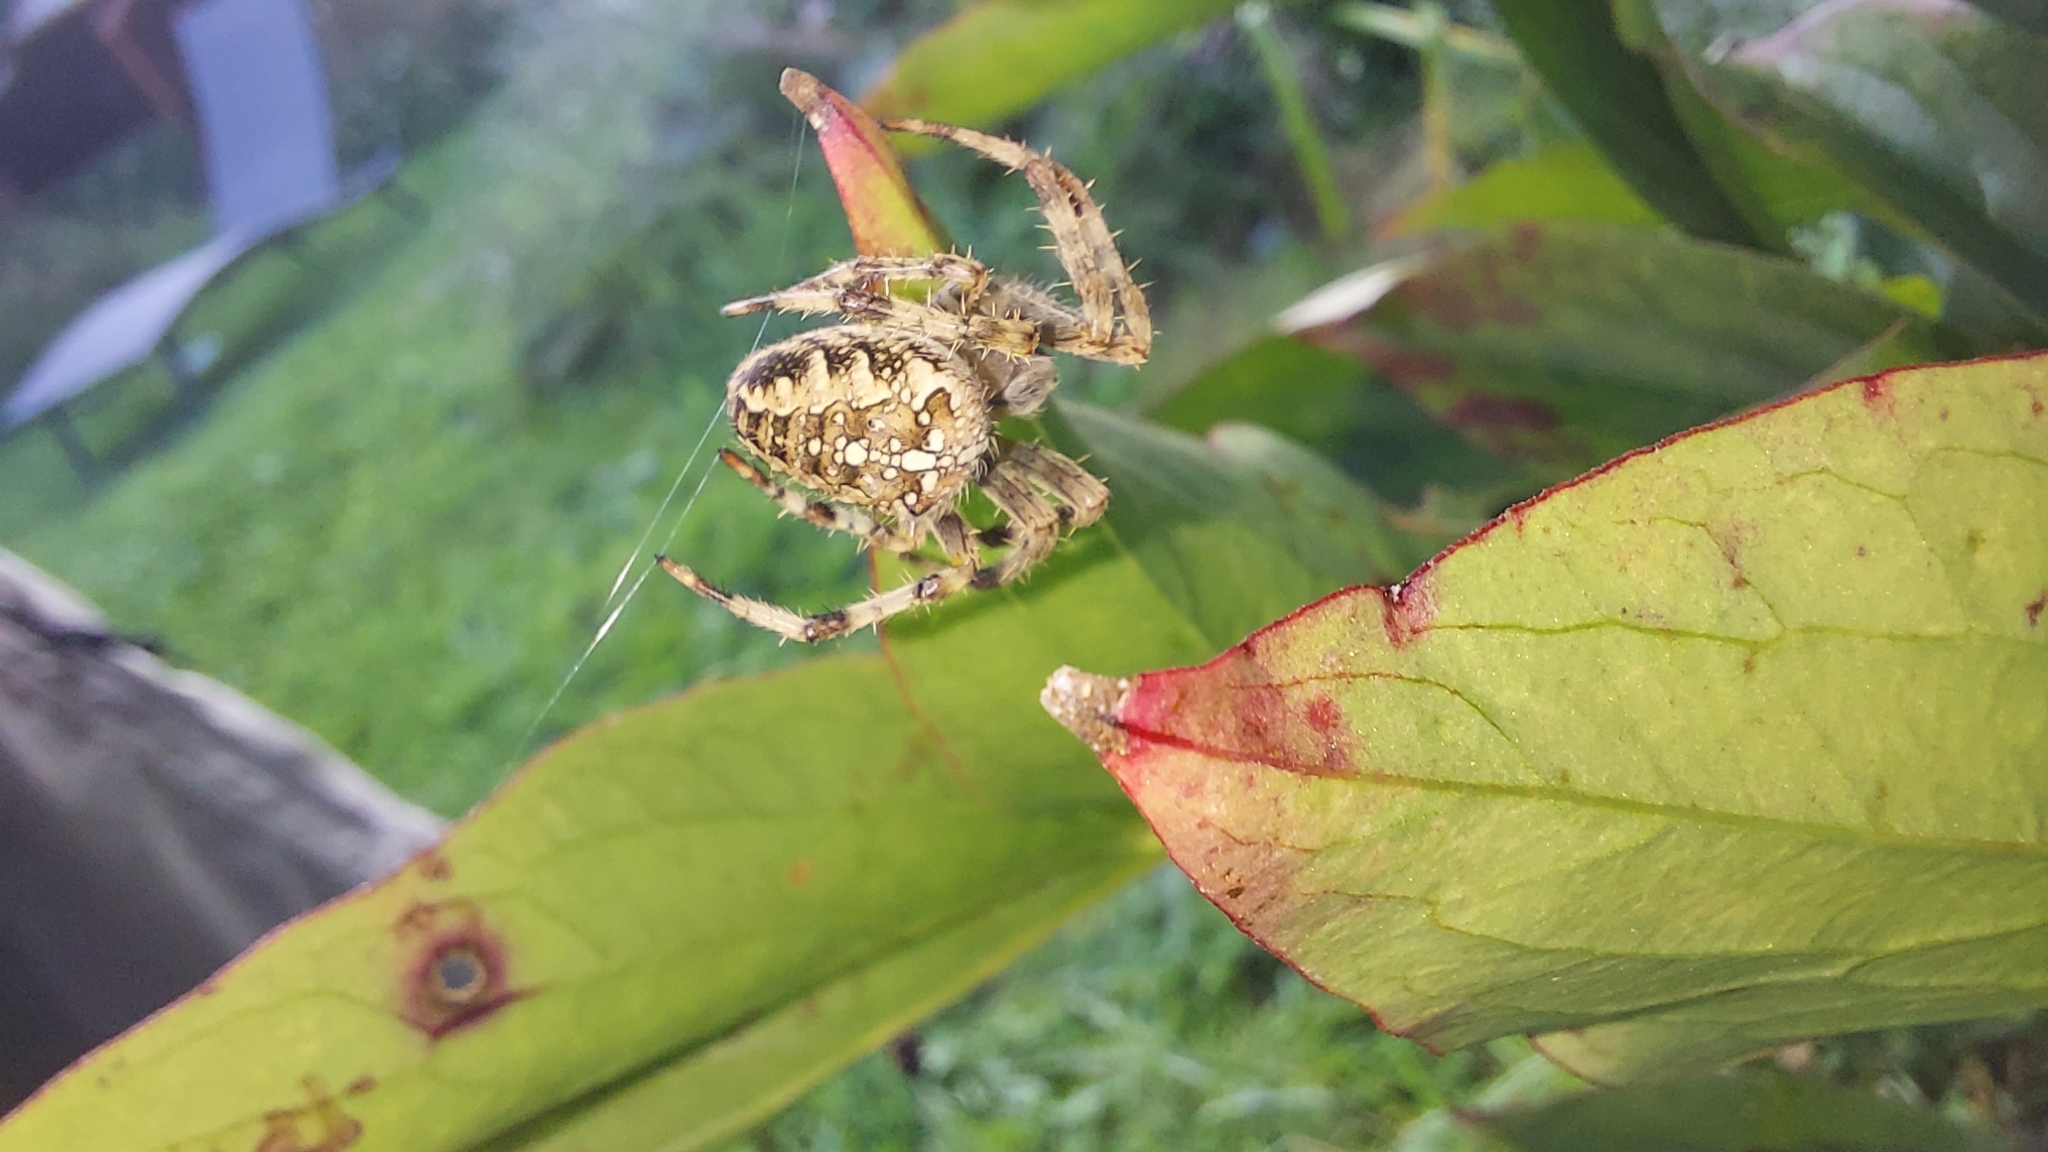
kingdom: Animalia
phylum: Arthropoda
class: Arachnida
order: Araneae
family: Araneidae
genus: Araneus
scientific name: Araneus diadematus
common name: Cross orbweaver
